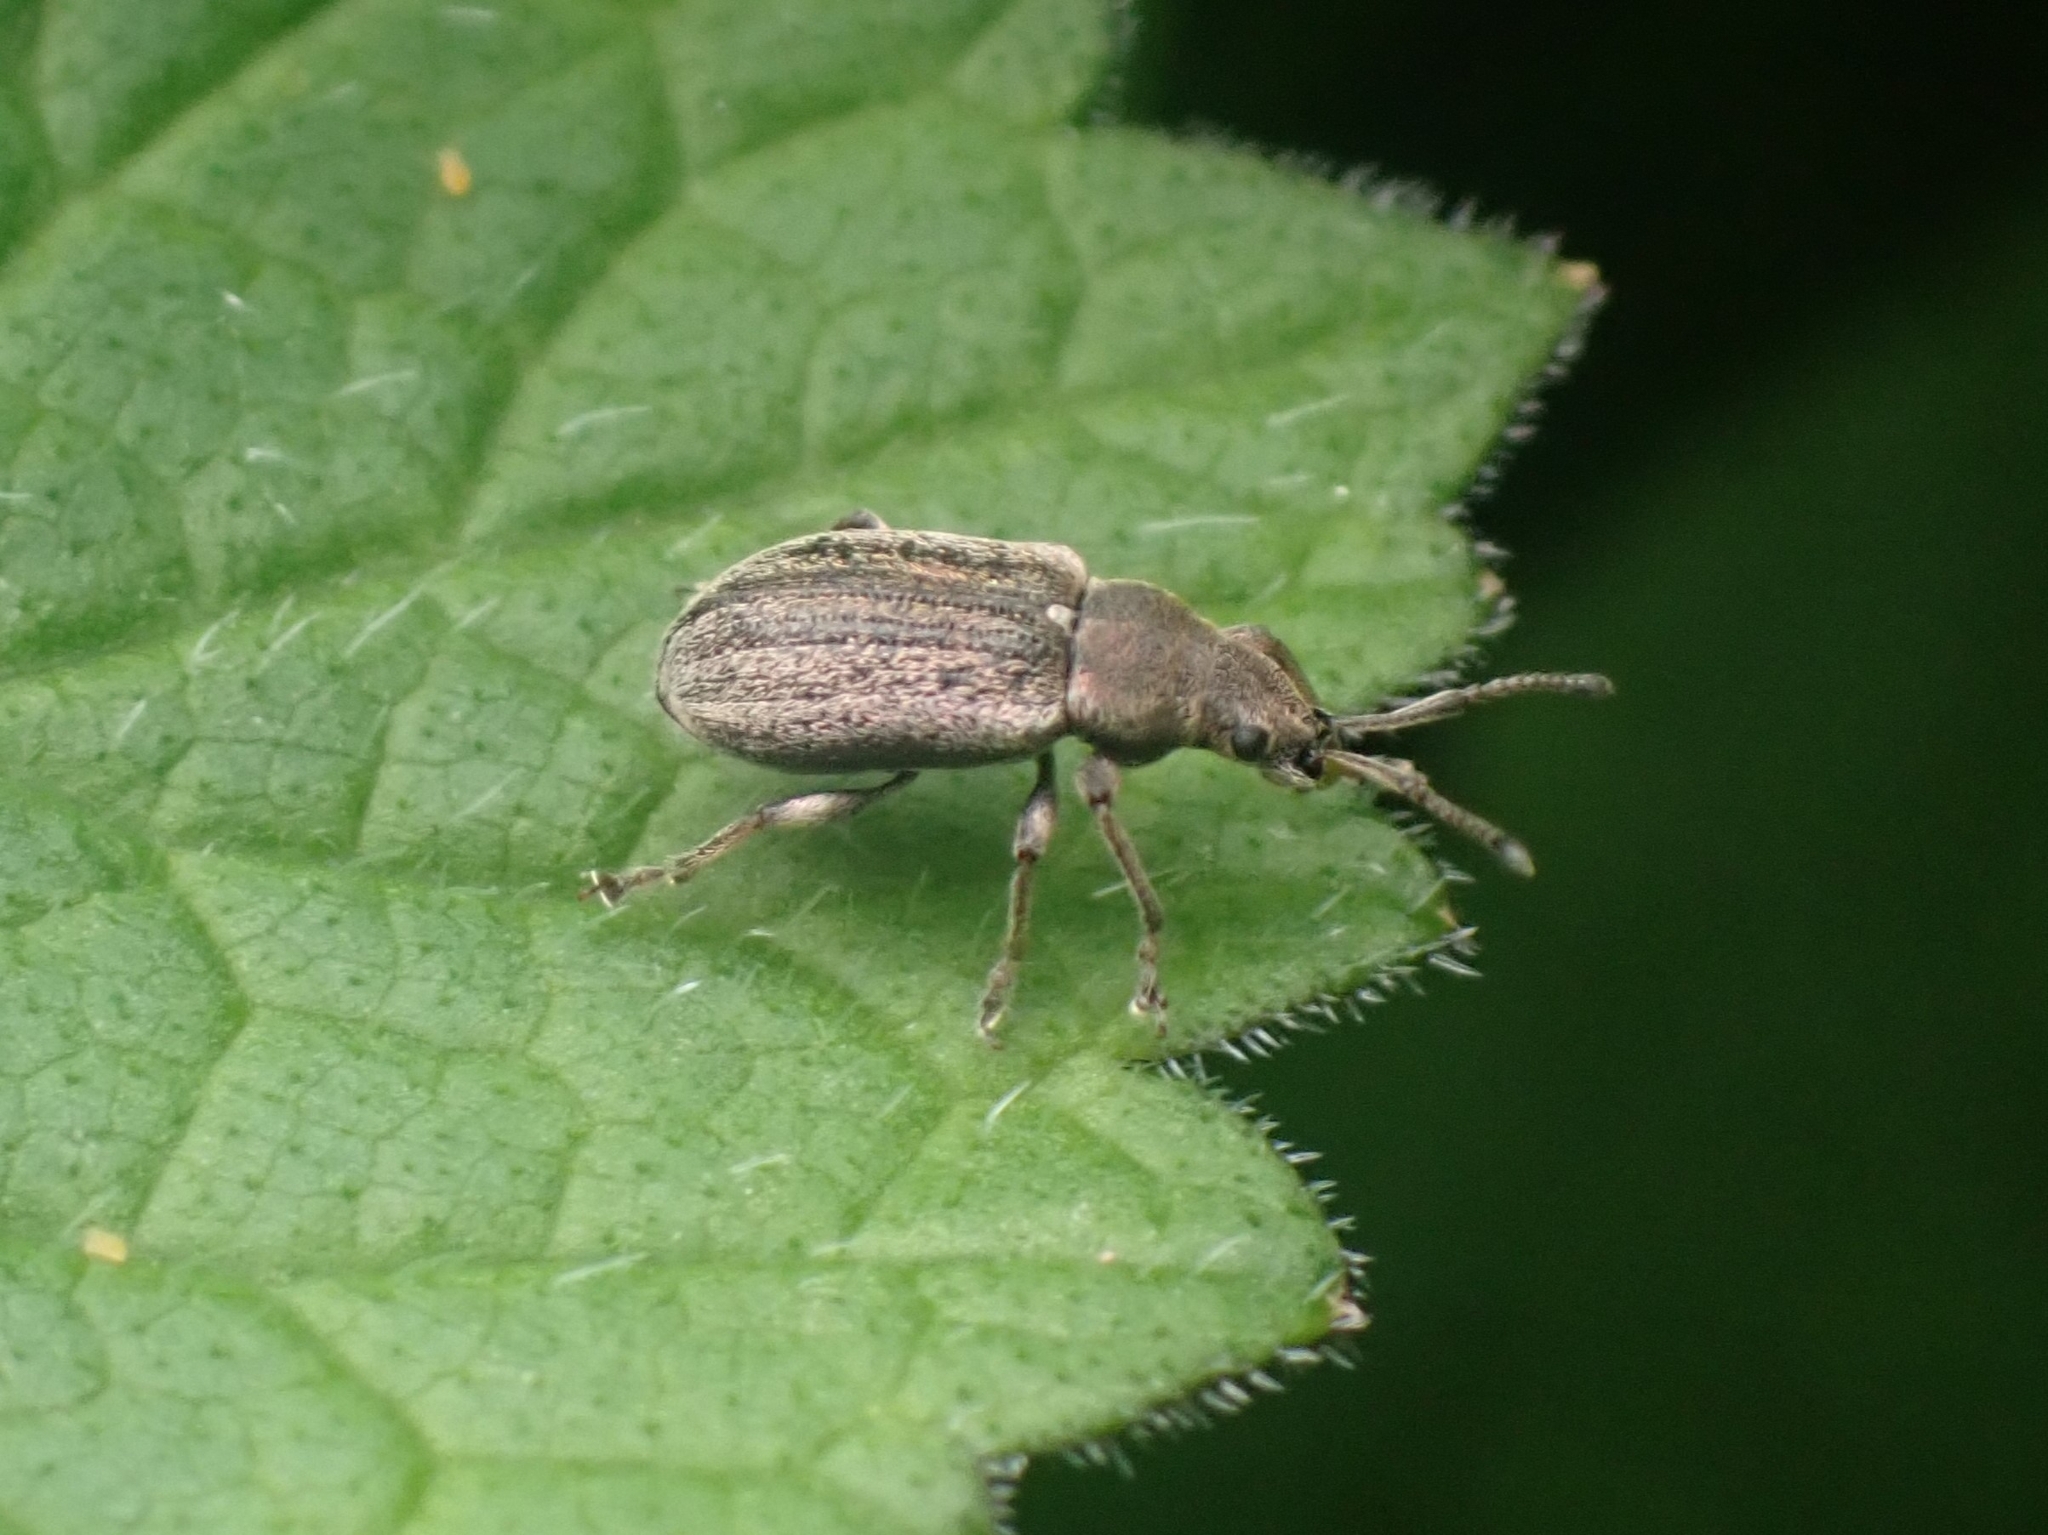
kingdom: Animalia
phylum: Arthropoda
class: Insecta
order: Coleoptera
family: Curculionidae
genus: Phyllobius
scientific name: Phyllobius pyri
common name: Common leaf weevil
